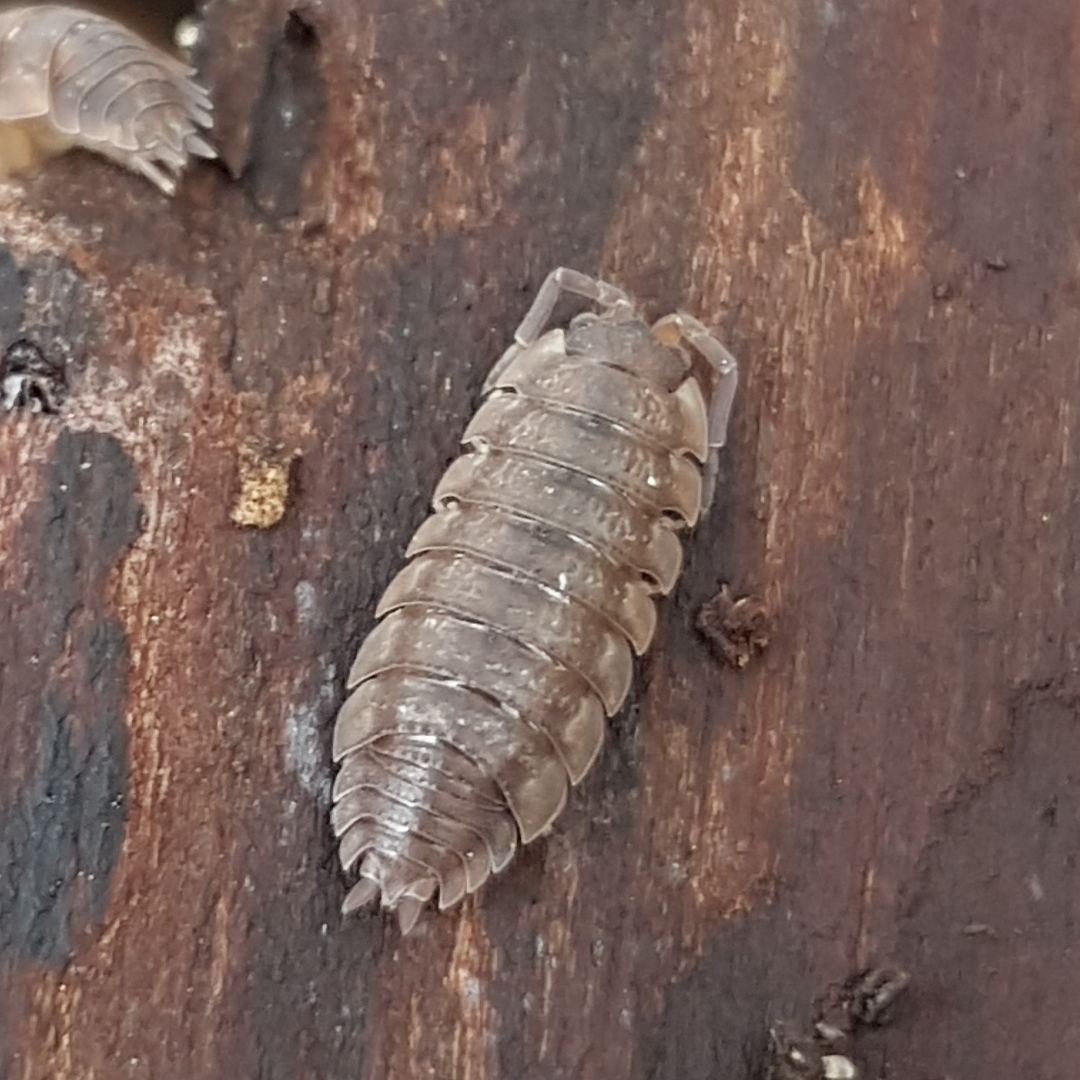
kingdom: Animalia
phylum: Arthropoda
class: Malacostraca
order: Isopoda
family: Porcellionidae
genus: Porcellio
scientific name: Porcellio scaber
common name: Common rough woodlouse
